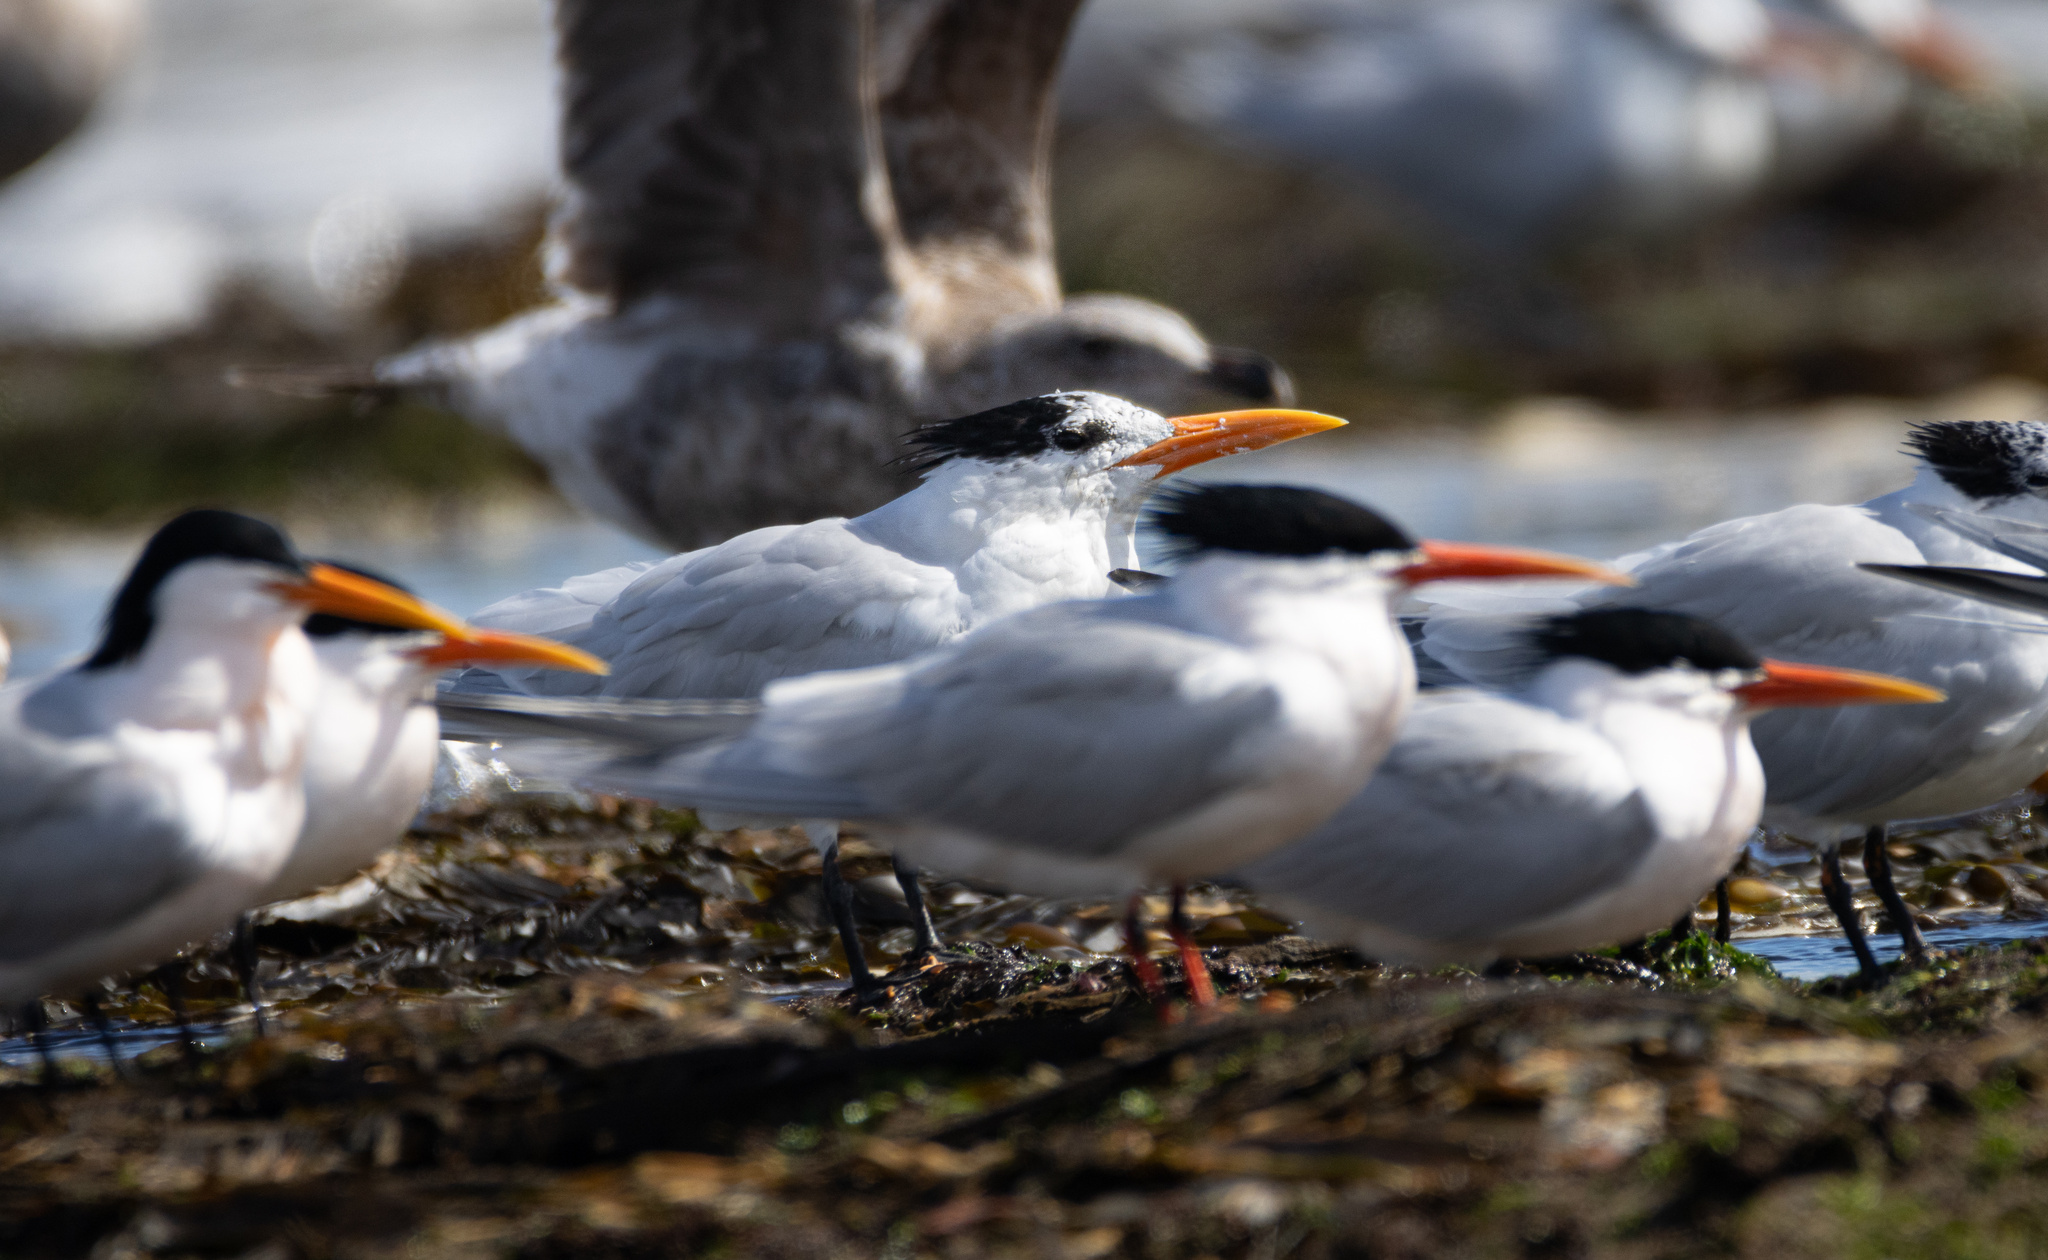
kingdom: Animalia
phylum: Chordata
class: Aves
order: Charadriiformes
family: Laridae
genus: Thalasseus
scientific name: Thalasseus maximus
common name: Royal tern
